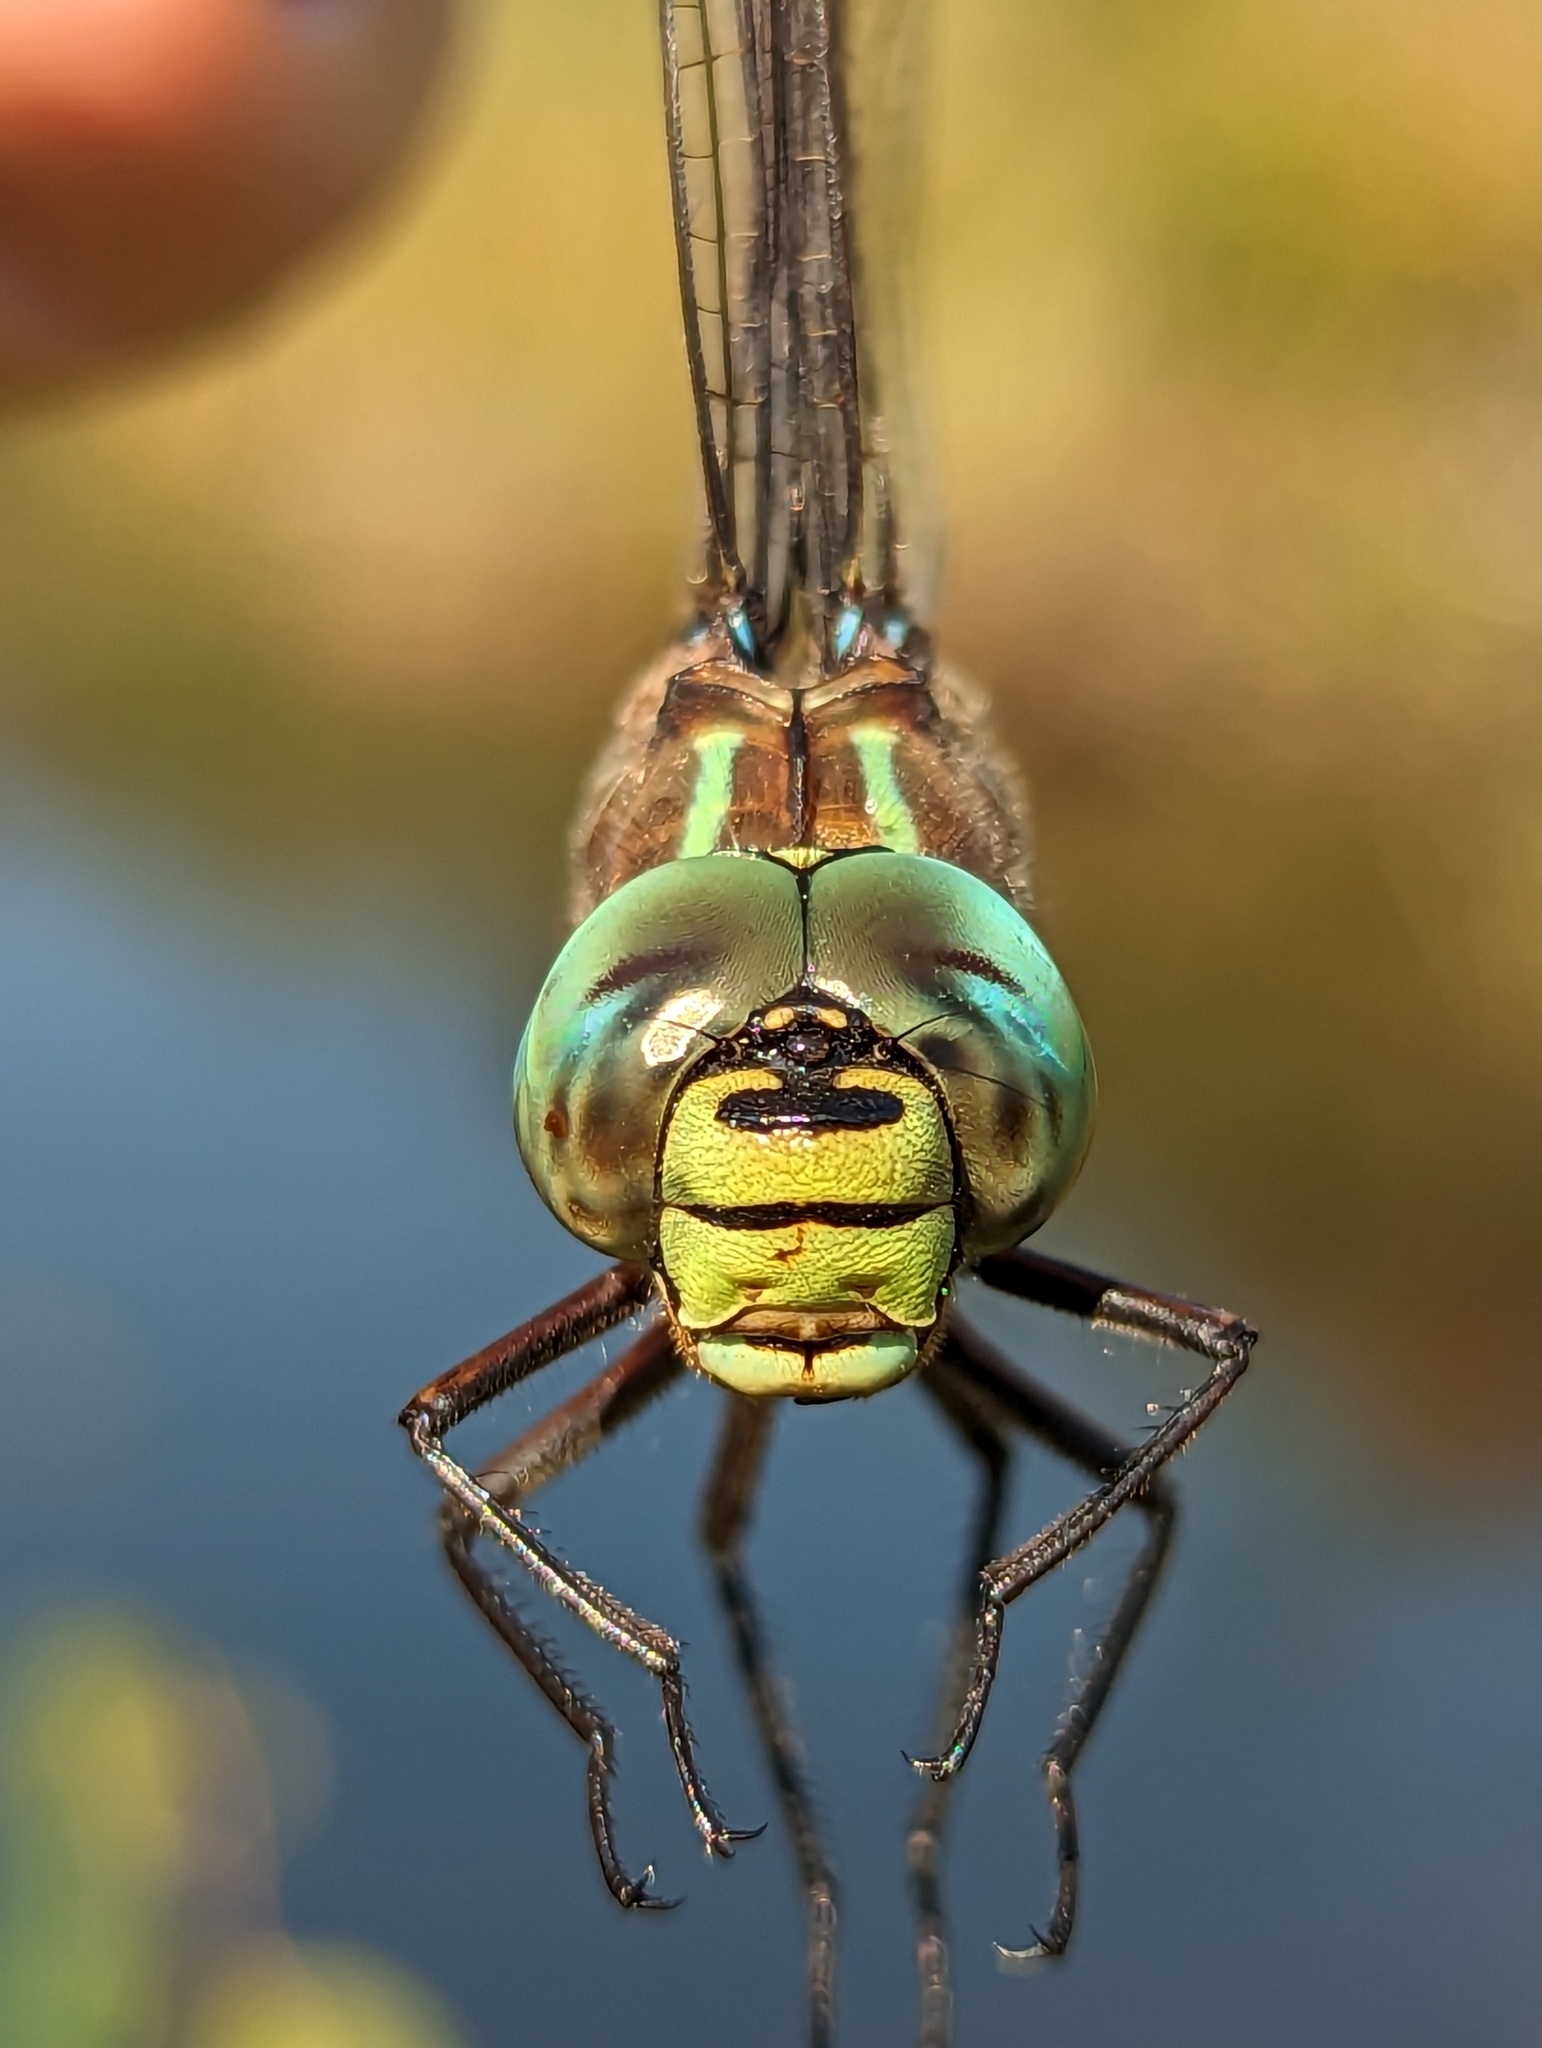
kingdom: Animalia
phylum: Arthropoda
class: Insecta
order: Odonata
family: Aeshnidae
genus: Aeshna
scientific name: Aeshna eremita
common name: Lake darner
